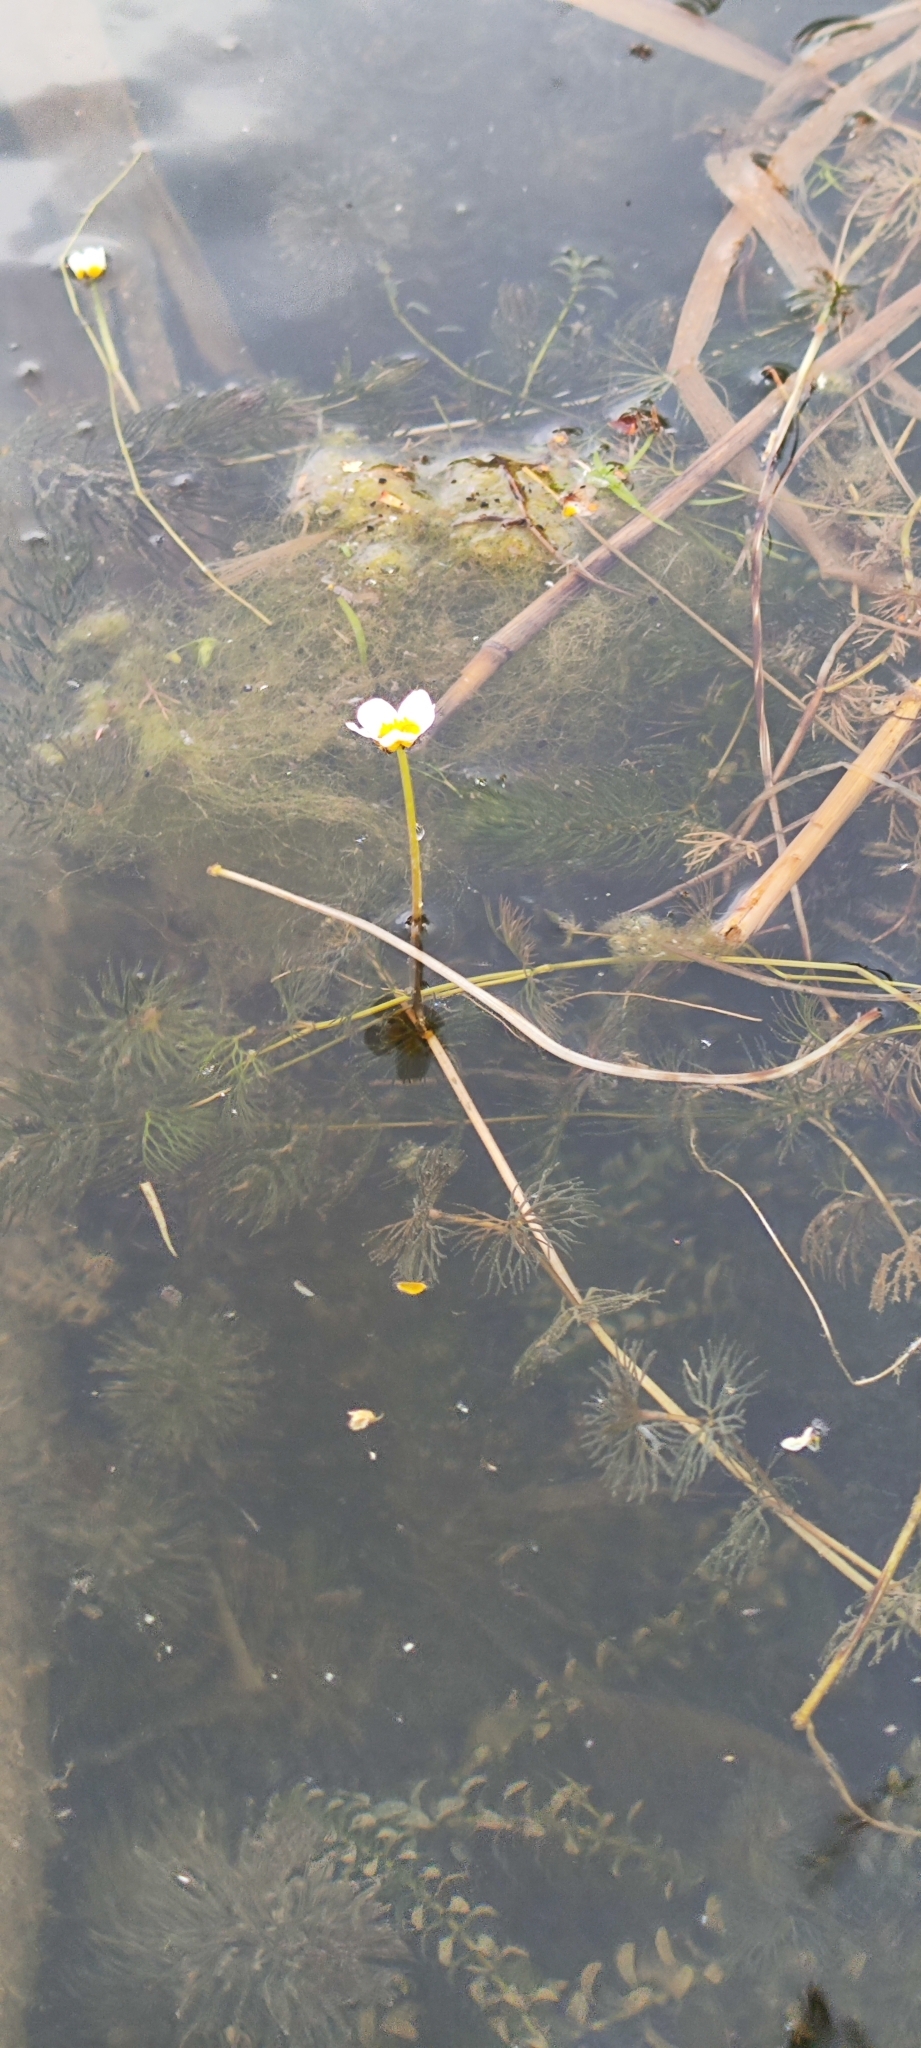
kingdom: Plantae
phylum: Tracheophyta
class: Magnoliopsida
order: Ranunculales
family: Ranunculaceae
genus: Ranunculus
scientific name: Ranunculus trichophyllus
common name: Thread-leaved water-crowfoot
